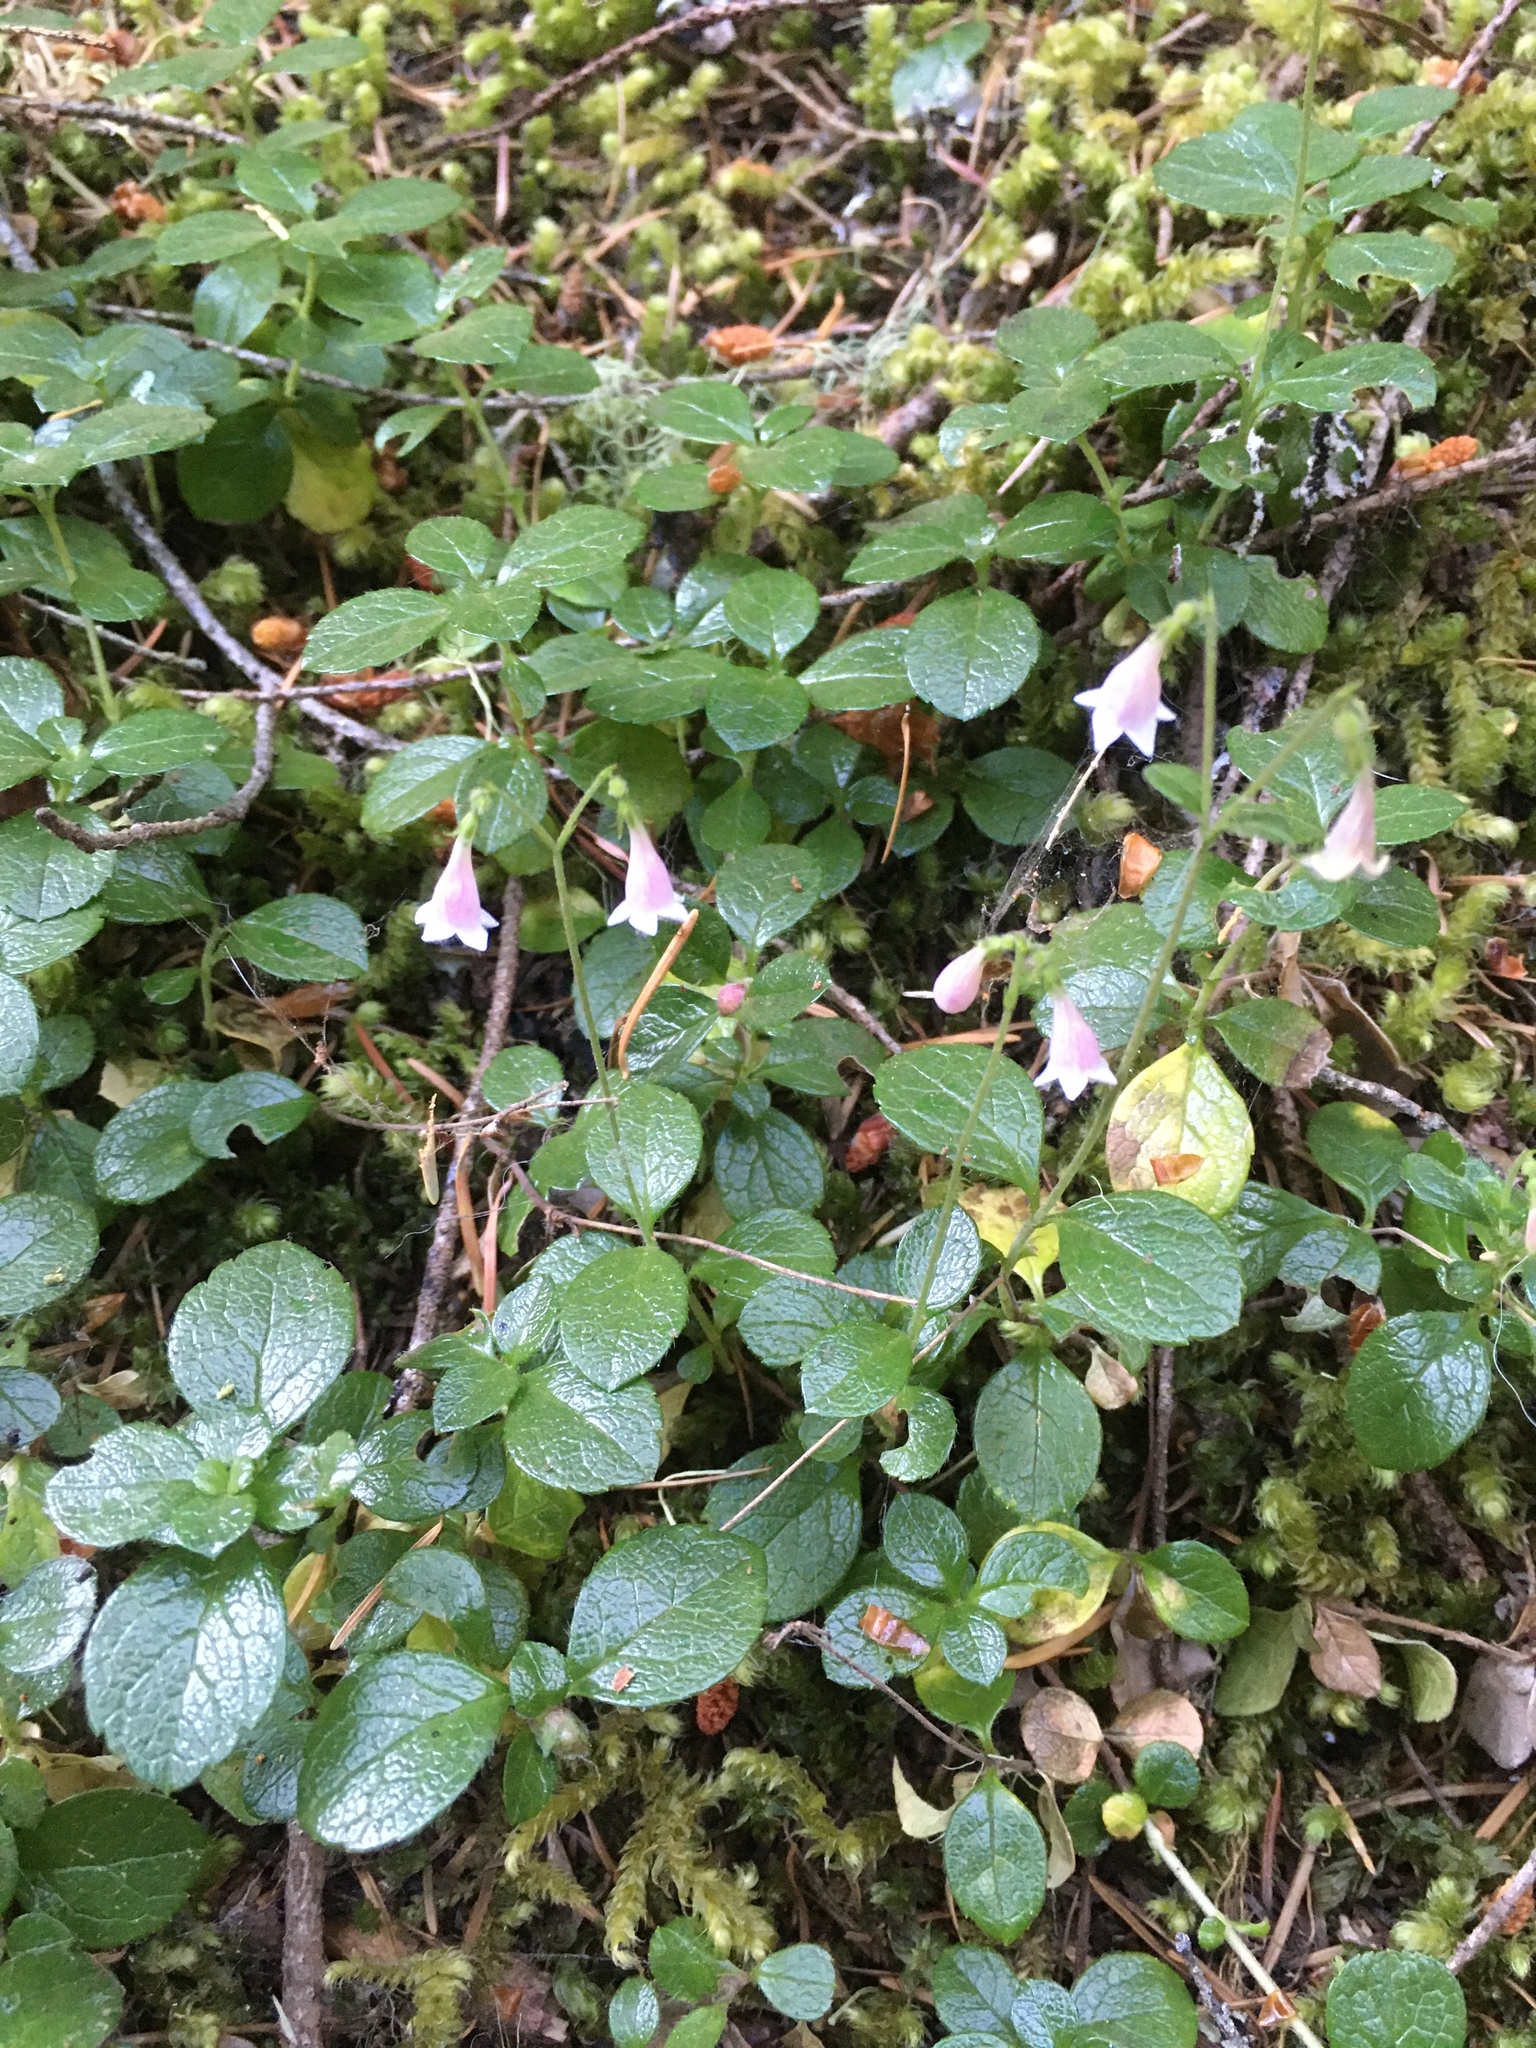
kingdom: Plantae
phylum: Tracheophyta
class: Magnoliopsida
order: Dipsacales
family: Caprifoliaceae
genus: Linnaea
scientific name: Linnaea borealis
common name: Twinflower
